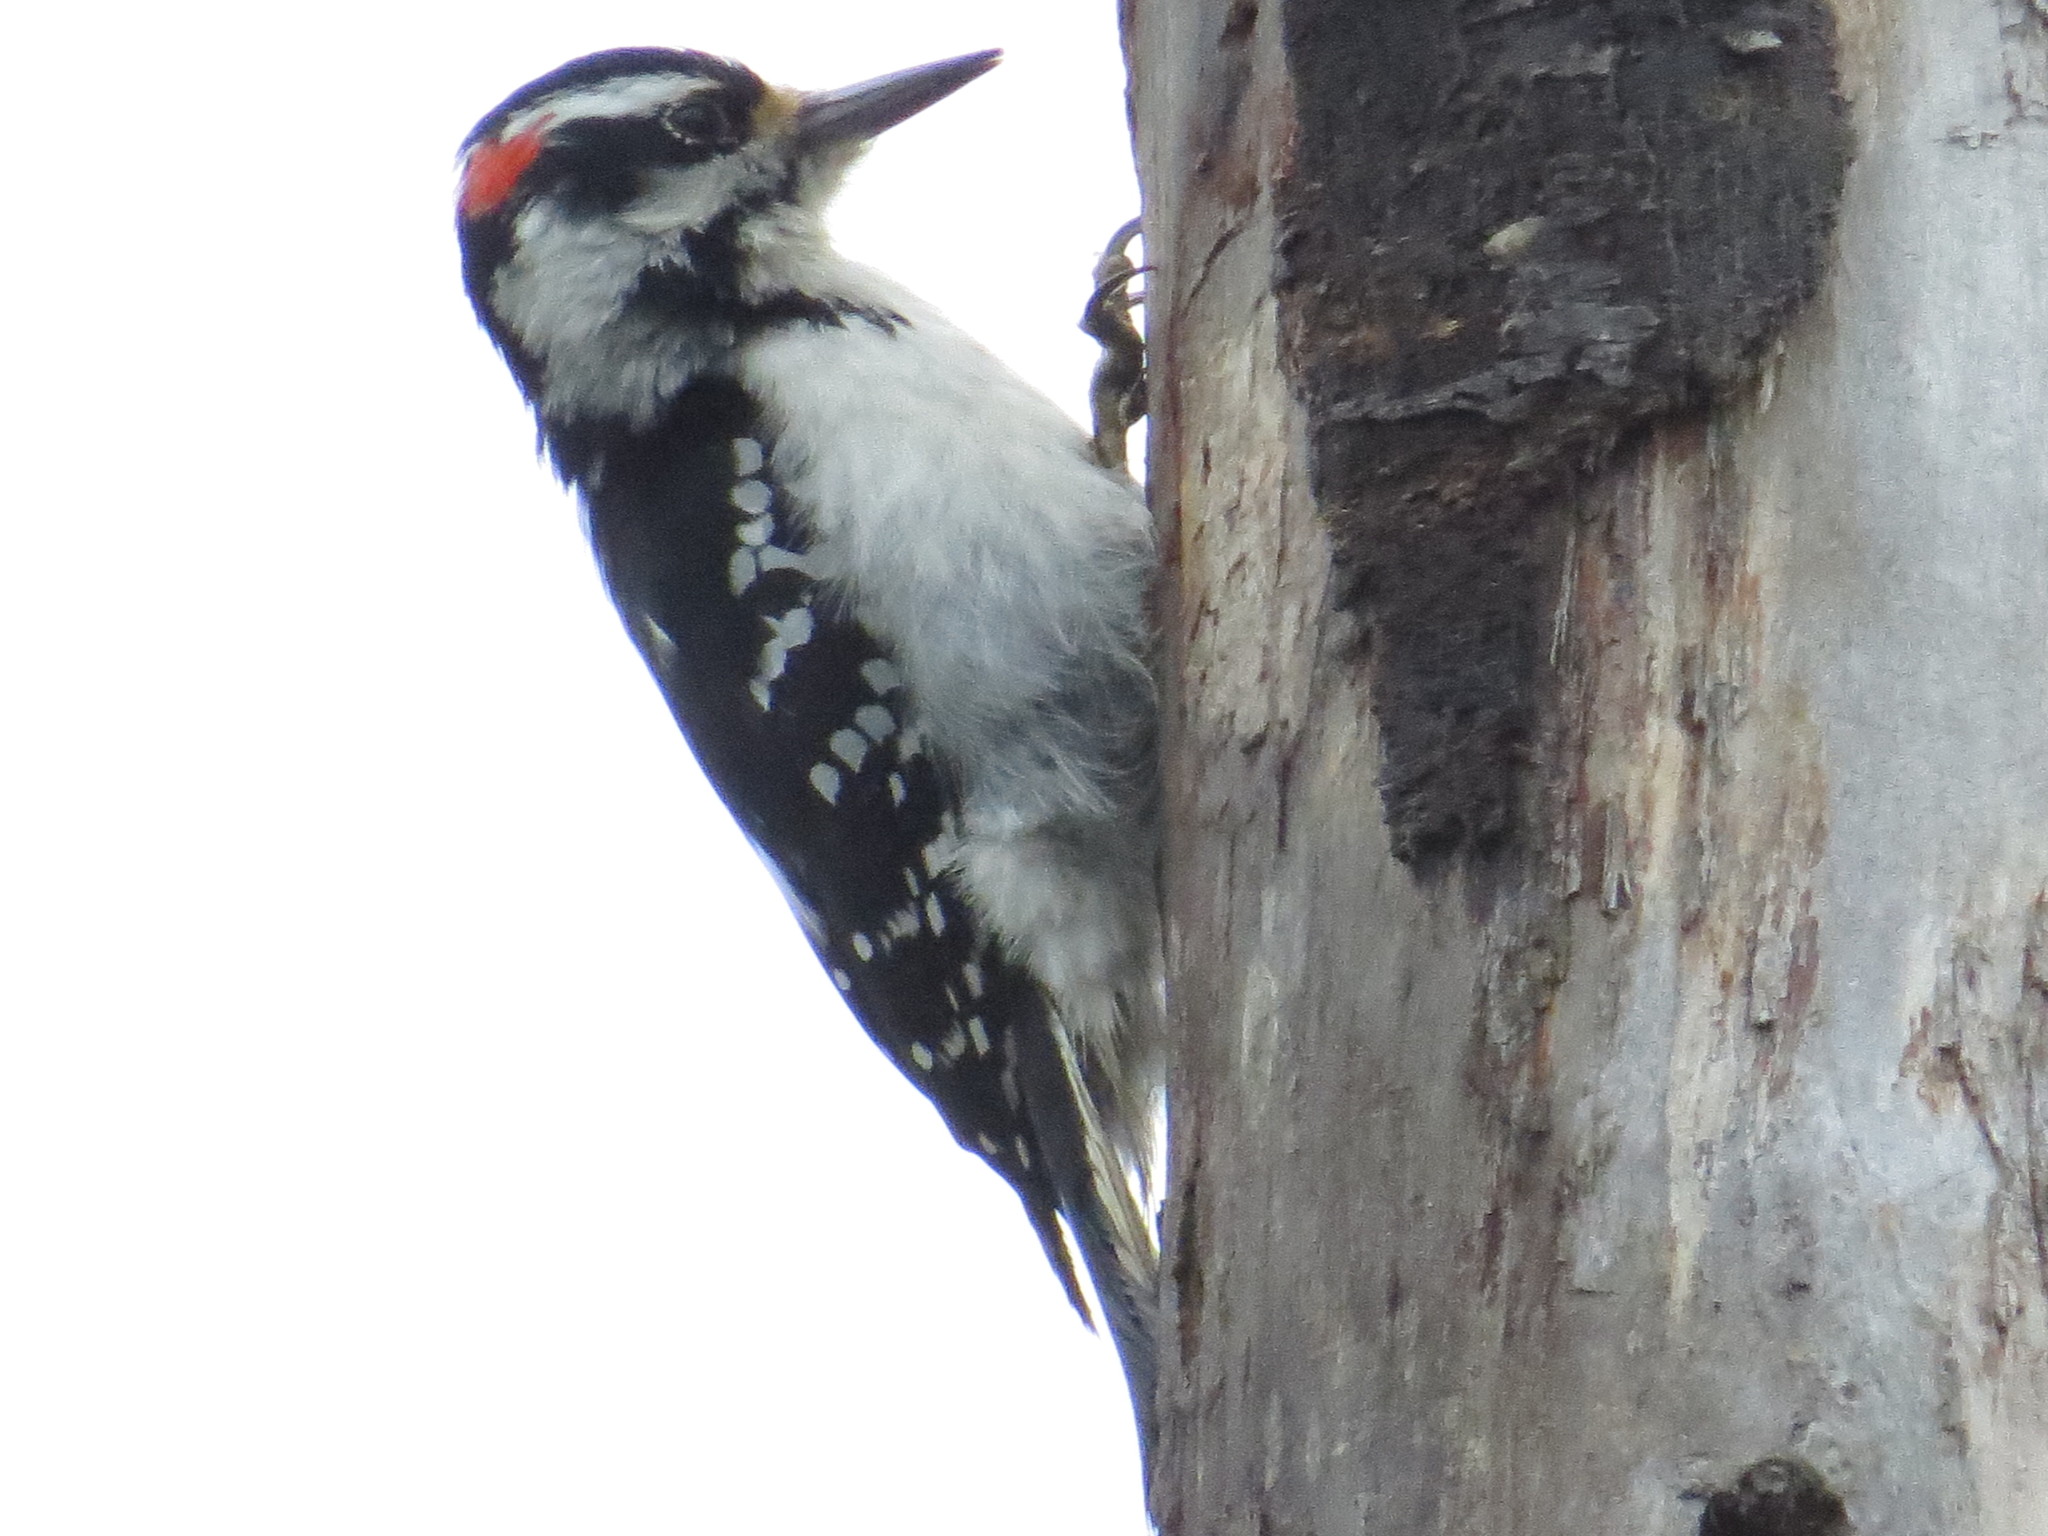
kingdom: Animalia
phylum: Chordata
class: Aves
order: Piciformes
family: Picidae
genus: Leuconotopicus
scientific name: Leuconotopicus villosus
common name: Hairy woodpecker
